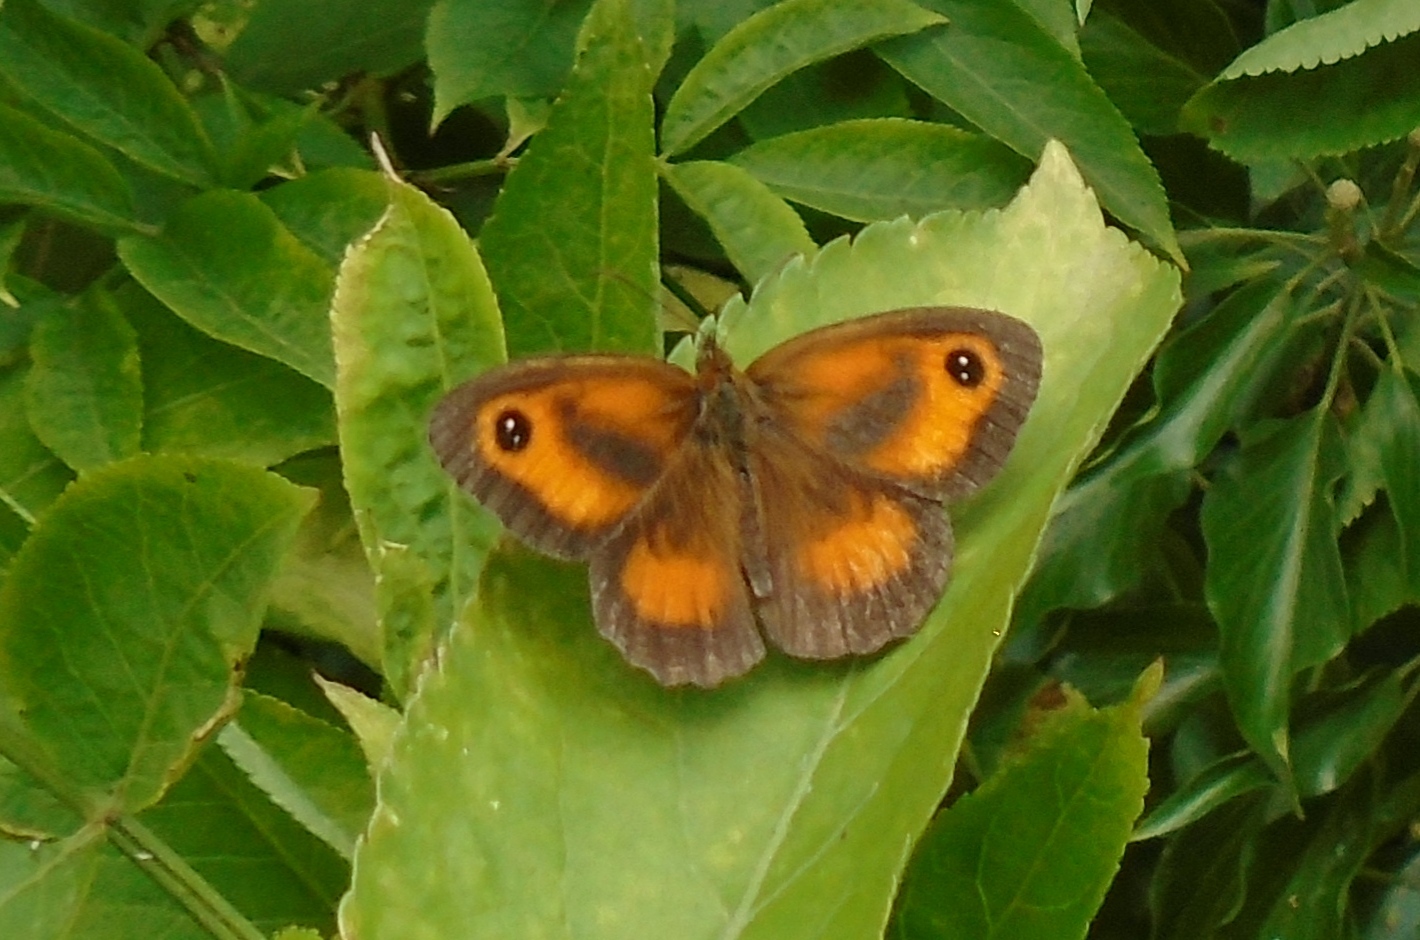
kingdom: Animalia
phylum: Arthropoda
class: Insecta
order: Lepidoptera
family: Nymphalidae
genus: Pyronia
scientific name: Pyronia tithonus
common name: Gatekeeper
